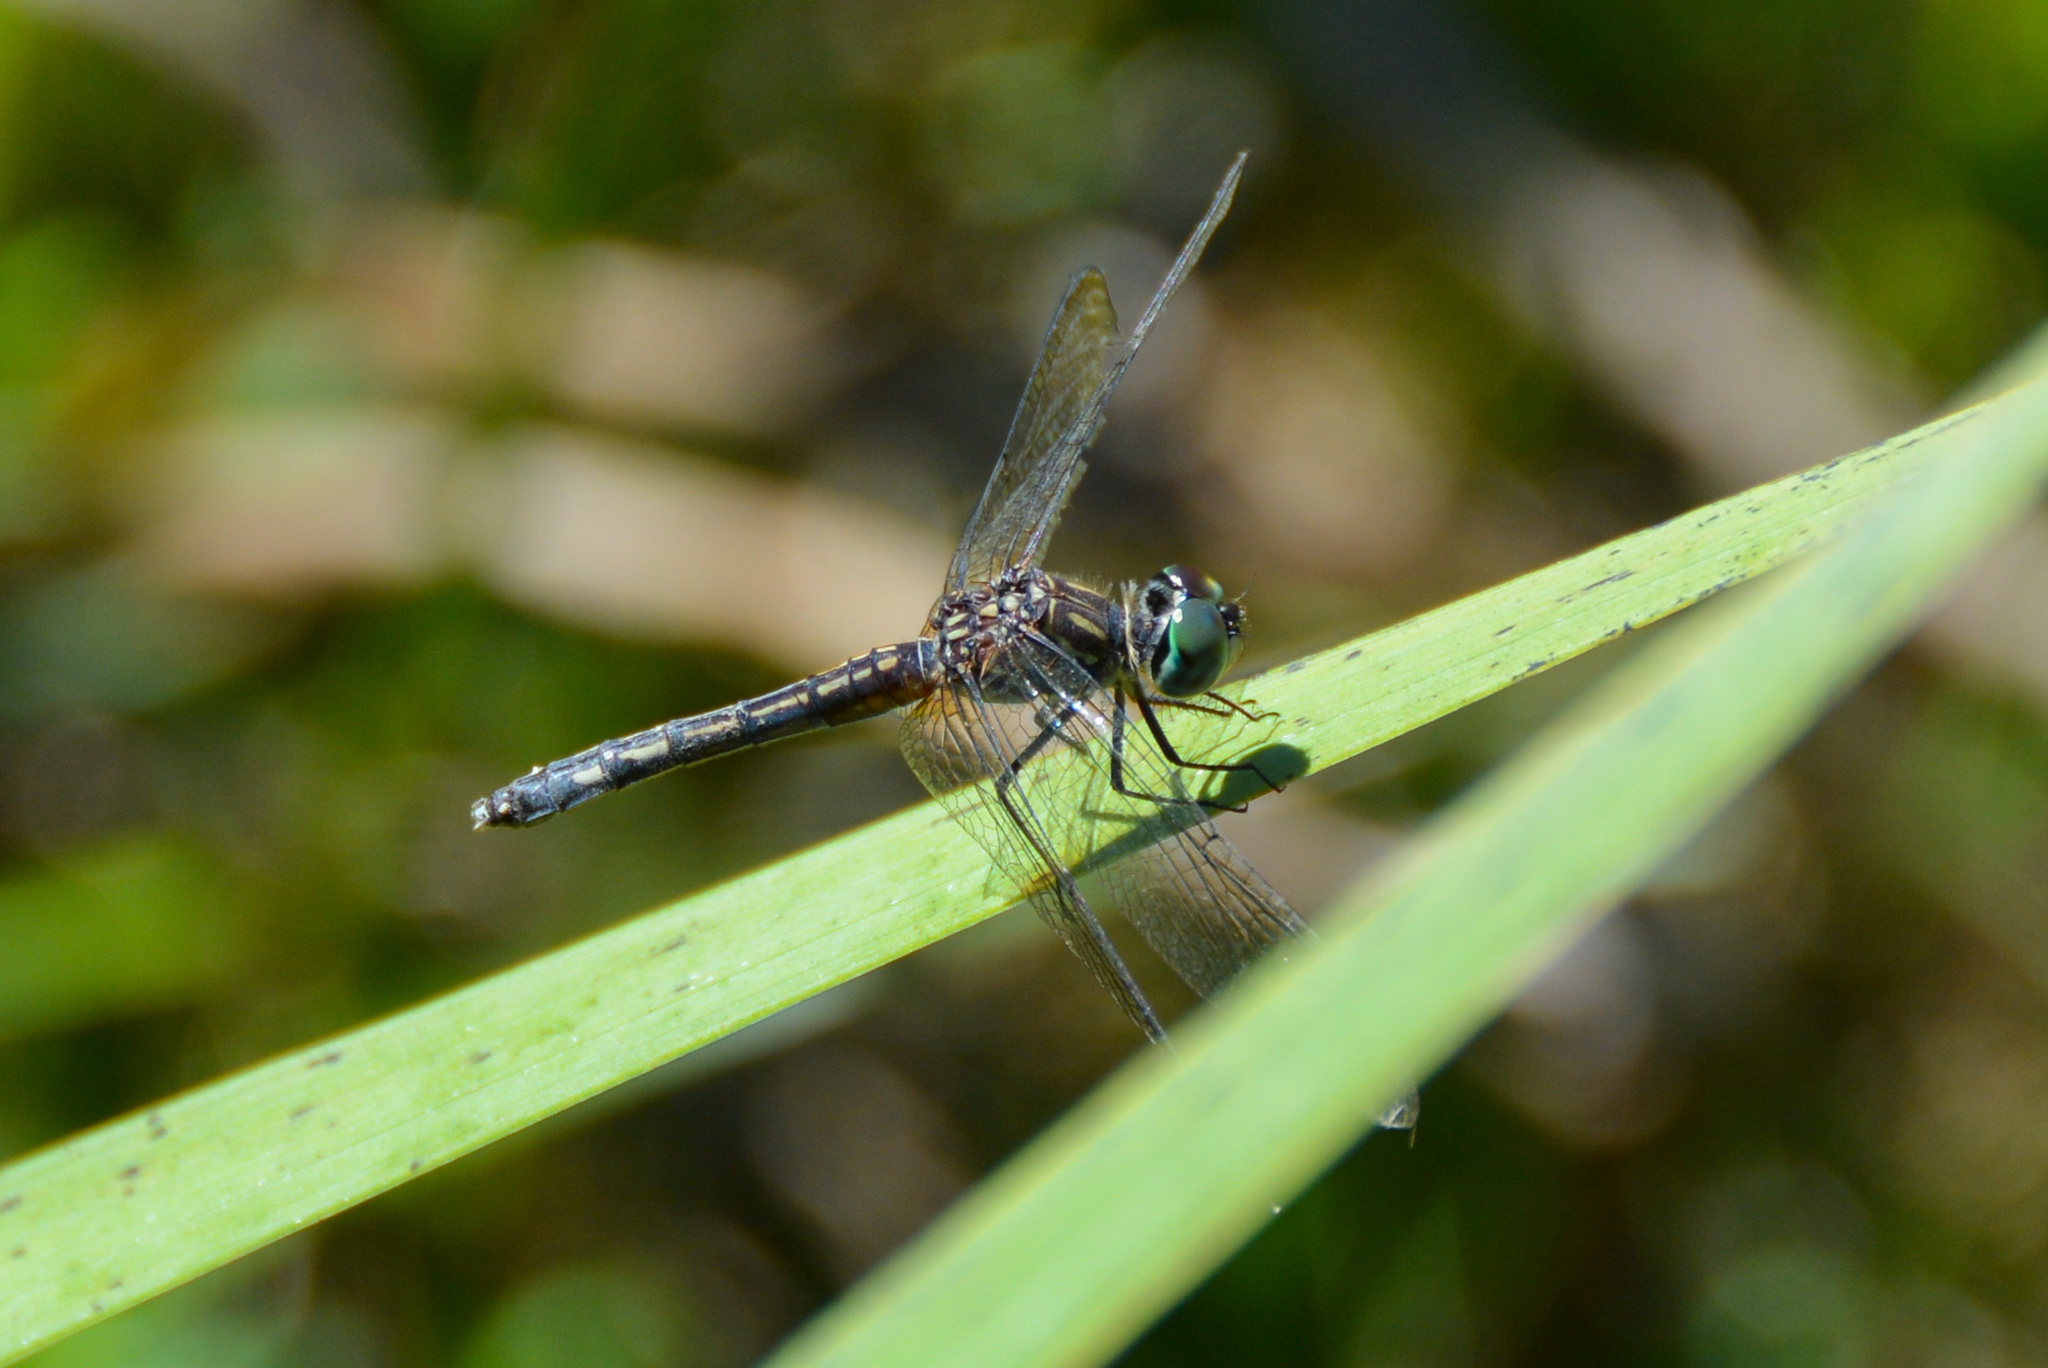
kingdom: Animalia
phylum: Arthropoda
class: Insecta
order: Odonata
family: Libellulidae
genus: Pachydiplax
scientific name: Pachydiplax longipennis
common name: Blue dasher
